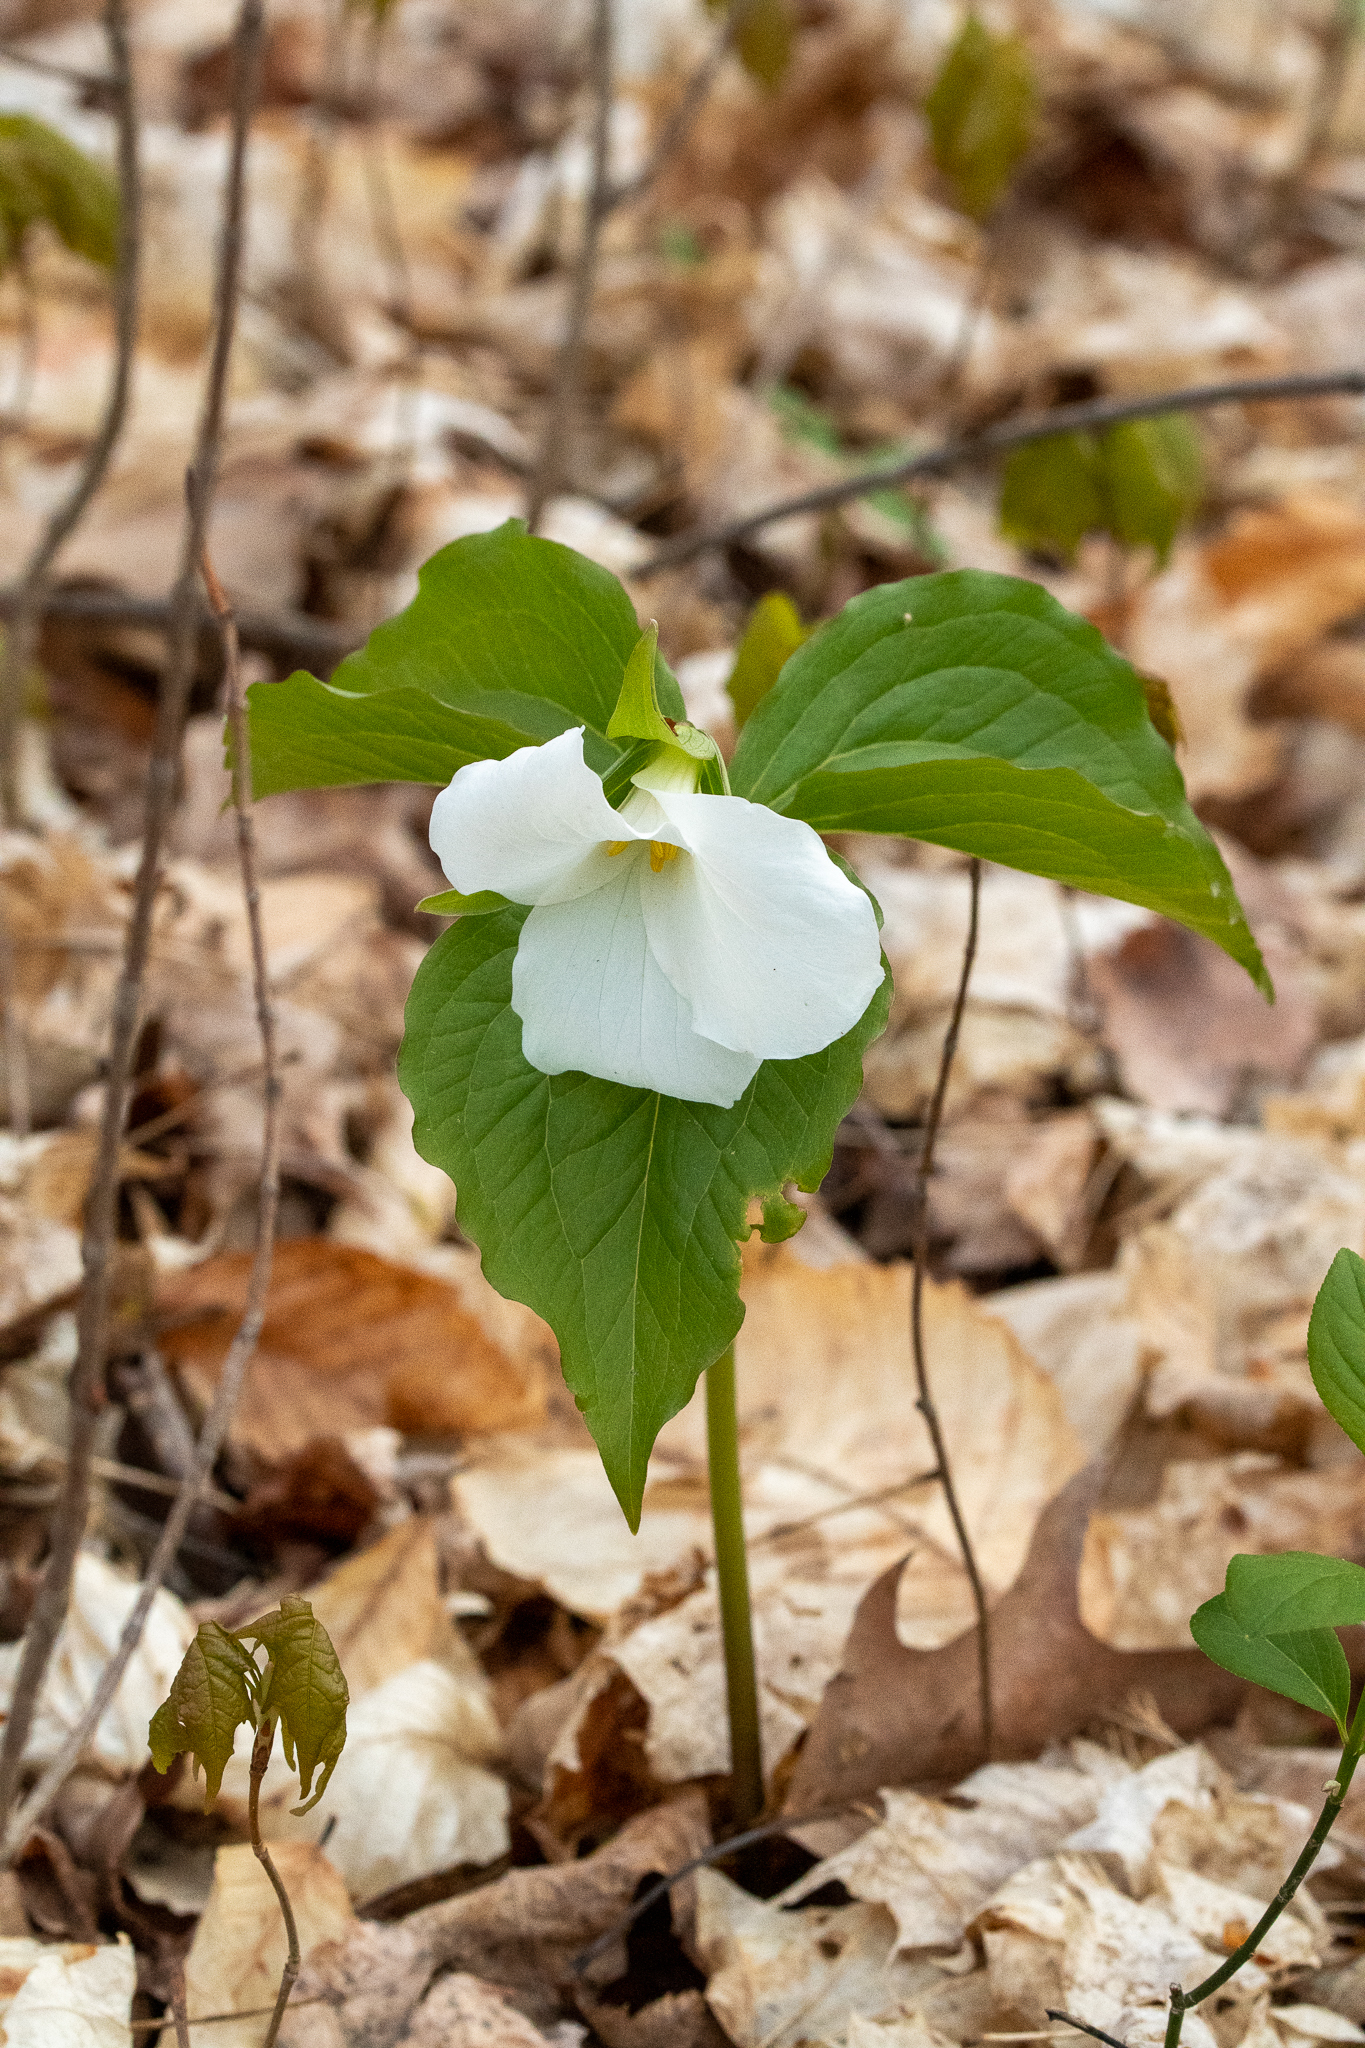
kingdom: Plantae
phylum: Tracheophyta
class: Liliopsida
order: Liliales
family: Melanthiaceae
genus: Trillium
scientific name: Trillium grandiflorum
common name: Great white trillium
